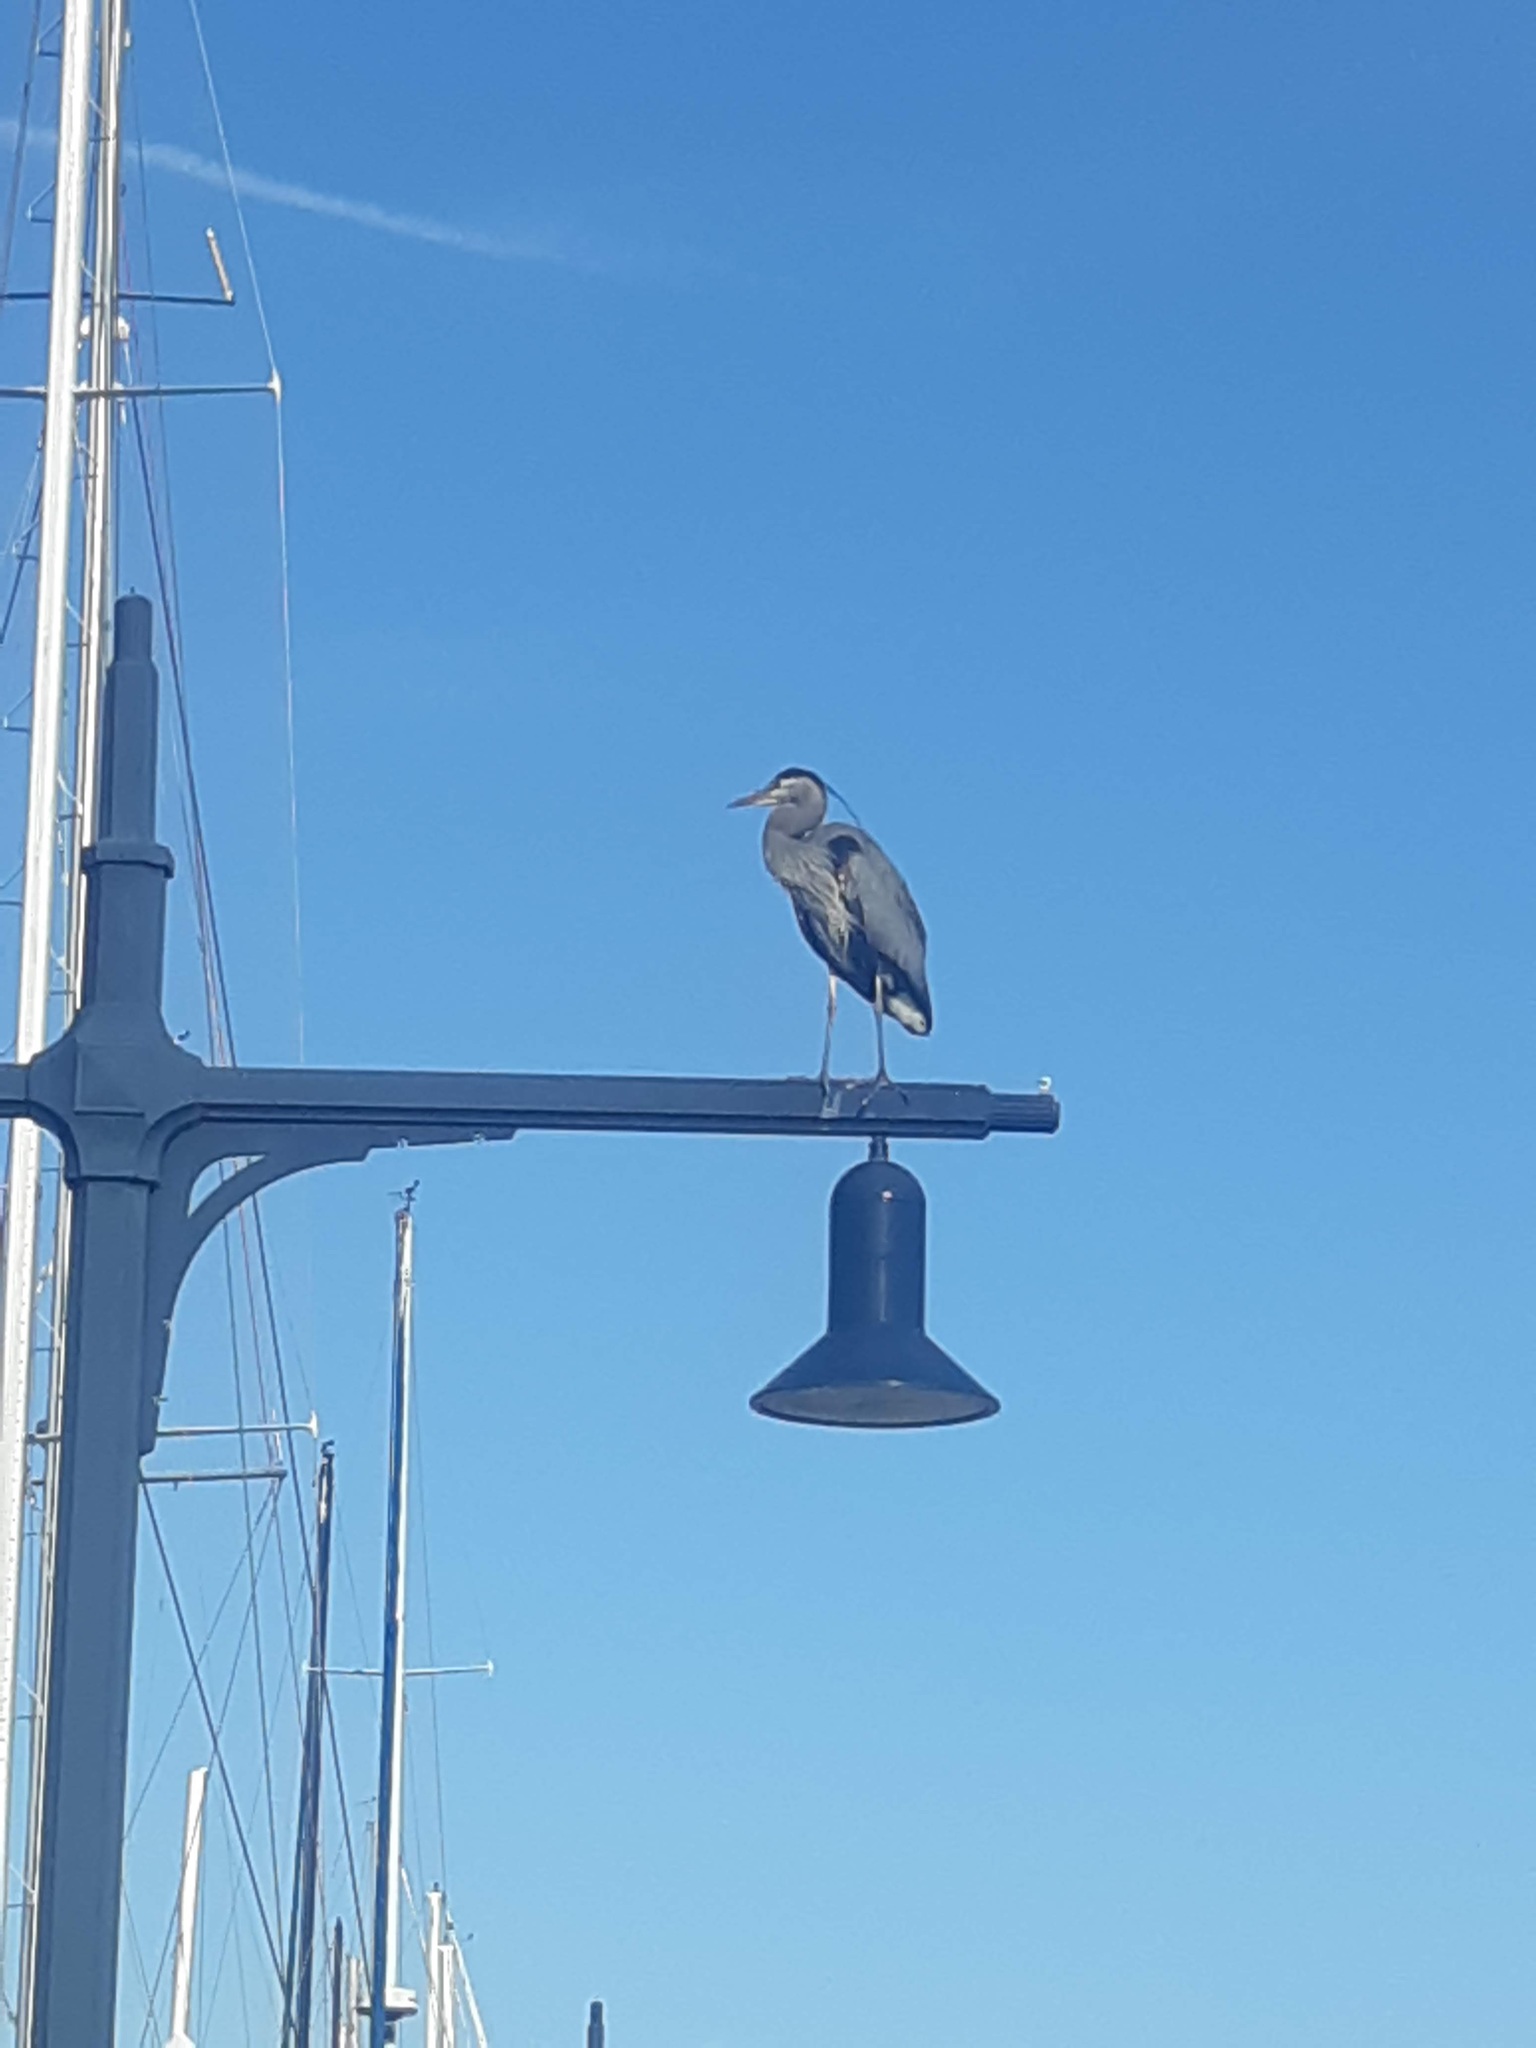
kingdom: Animalia
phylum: Chordata
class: Aves
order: Pelecaniformes
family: Ardeidae
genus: Ardea
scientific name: Ardea herodias
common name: Great blue heron
